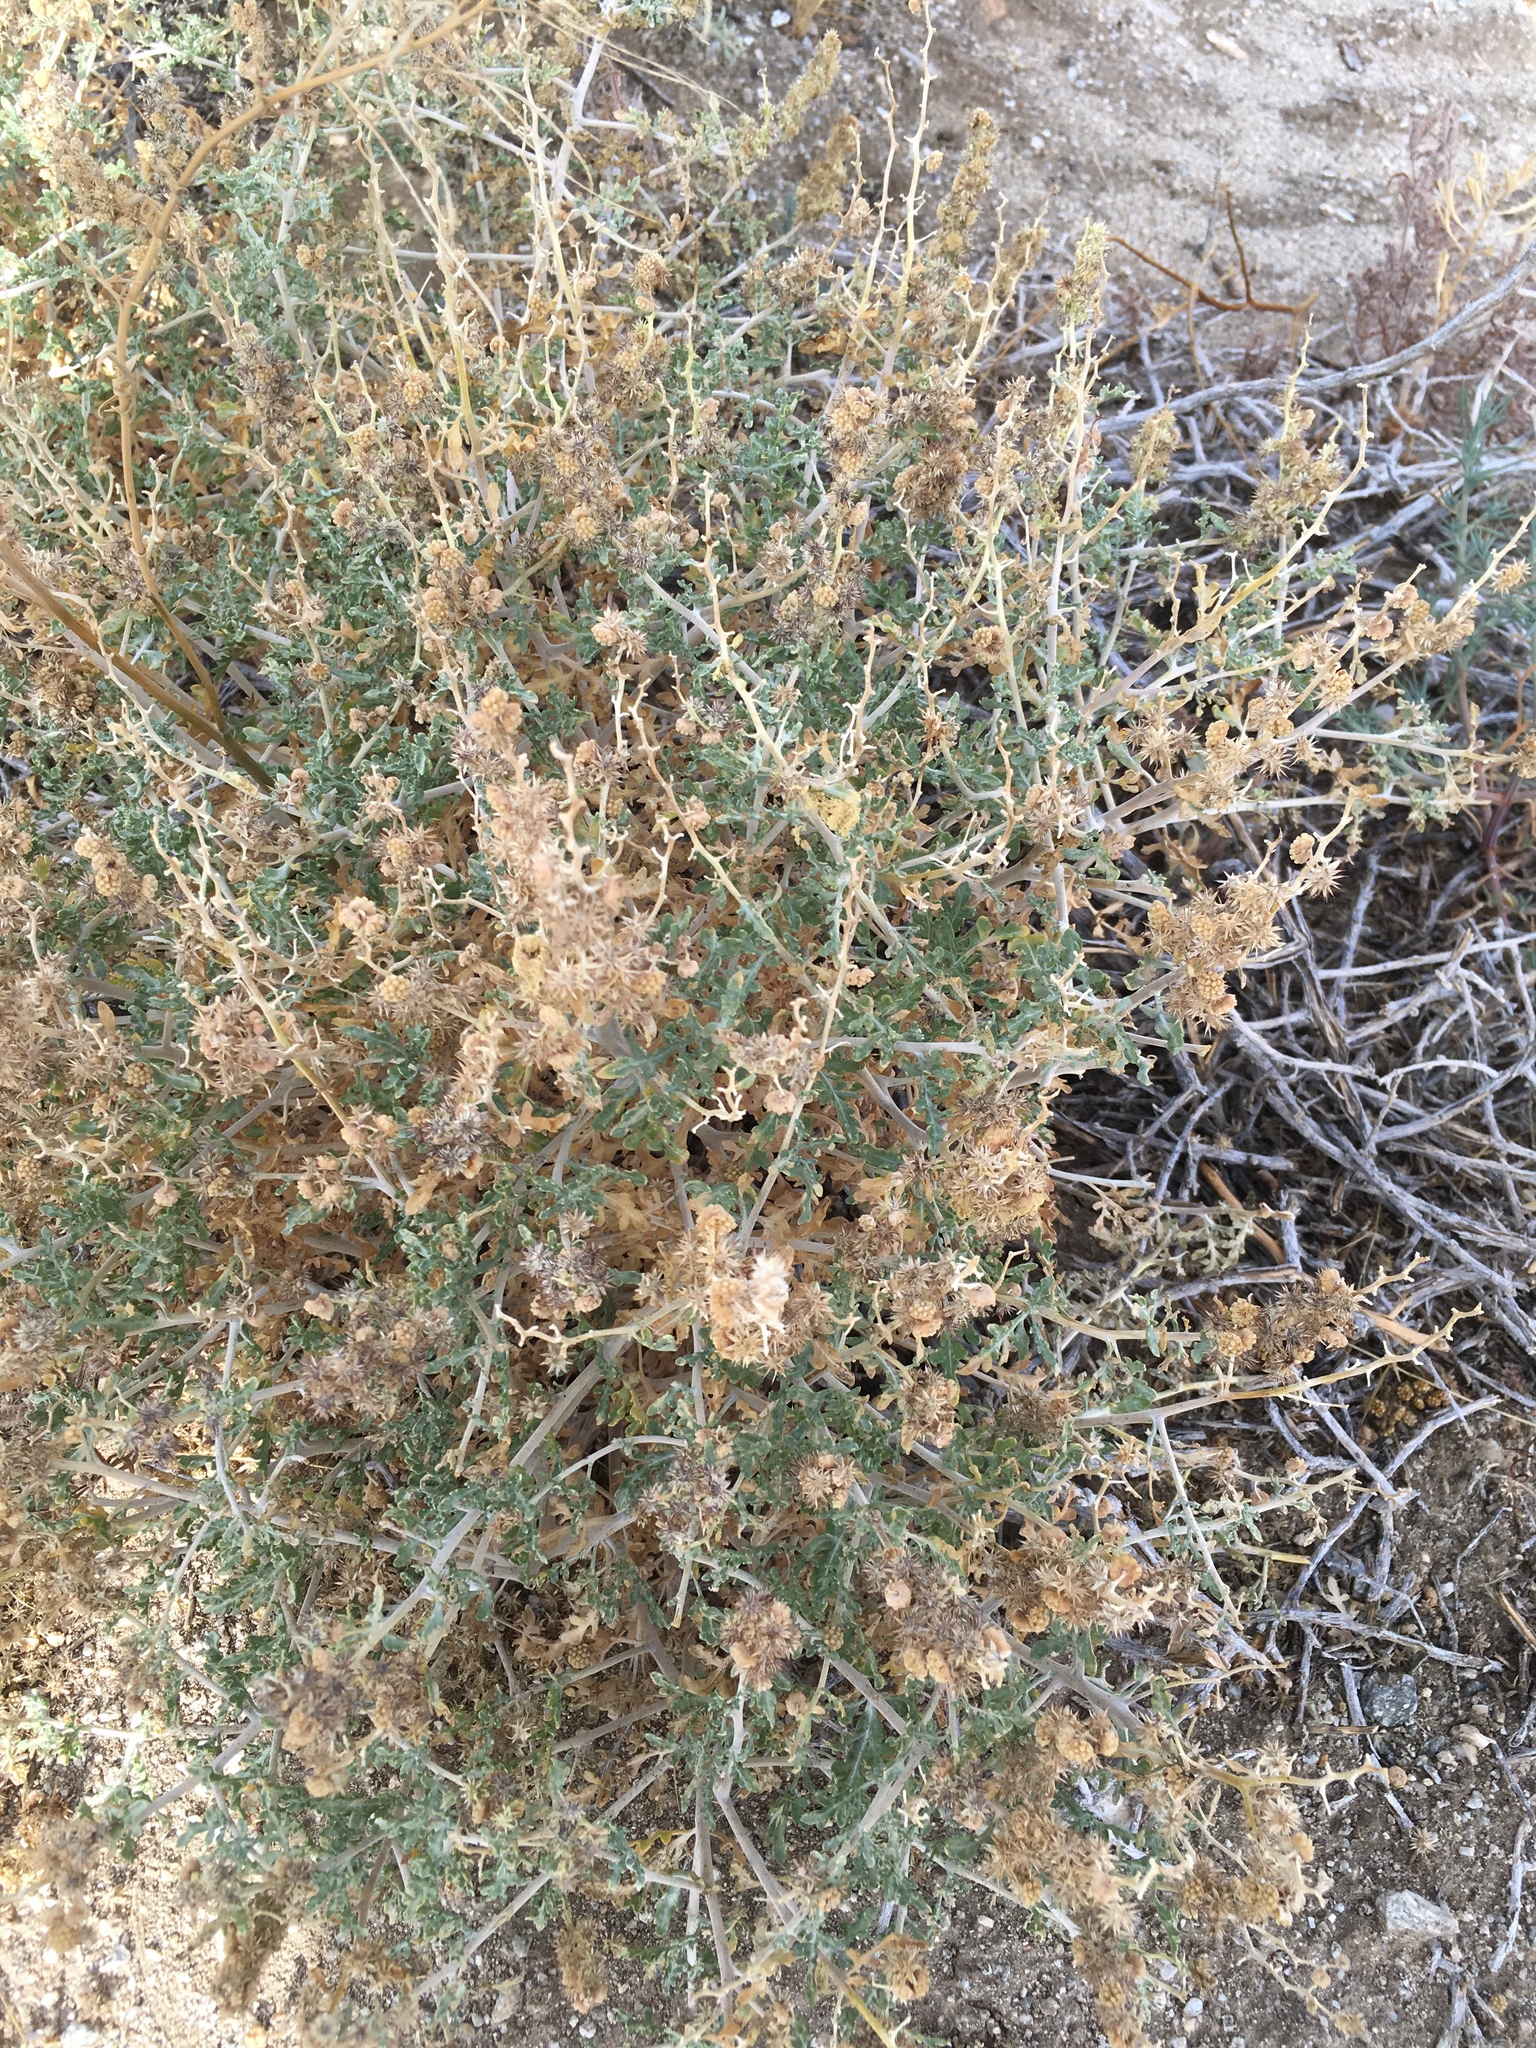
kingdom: Plantae
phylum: Tracheophyta
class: Magnoliopsida
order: Asterales
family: Asteraceae
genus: Ambrosia
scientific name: Ambrosia dumosa
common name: Bur-sage
